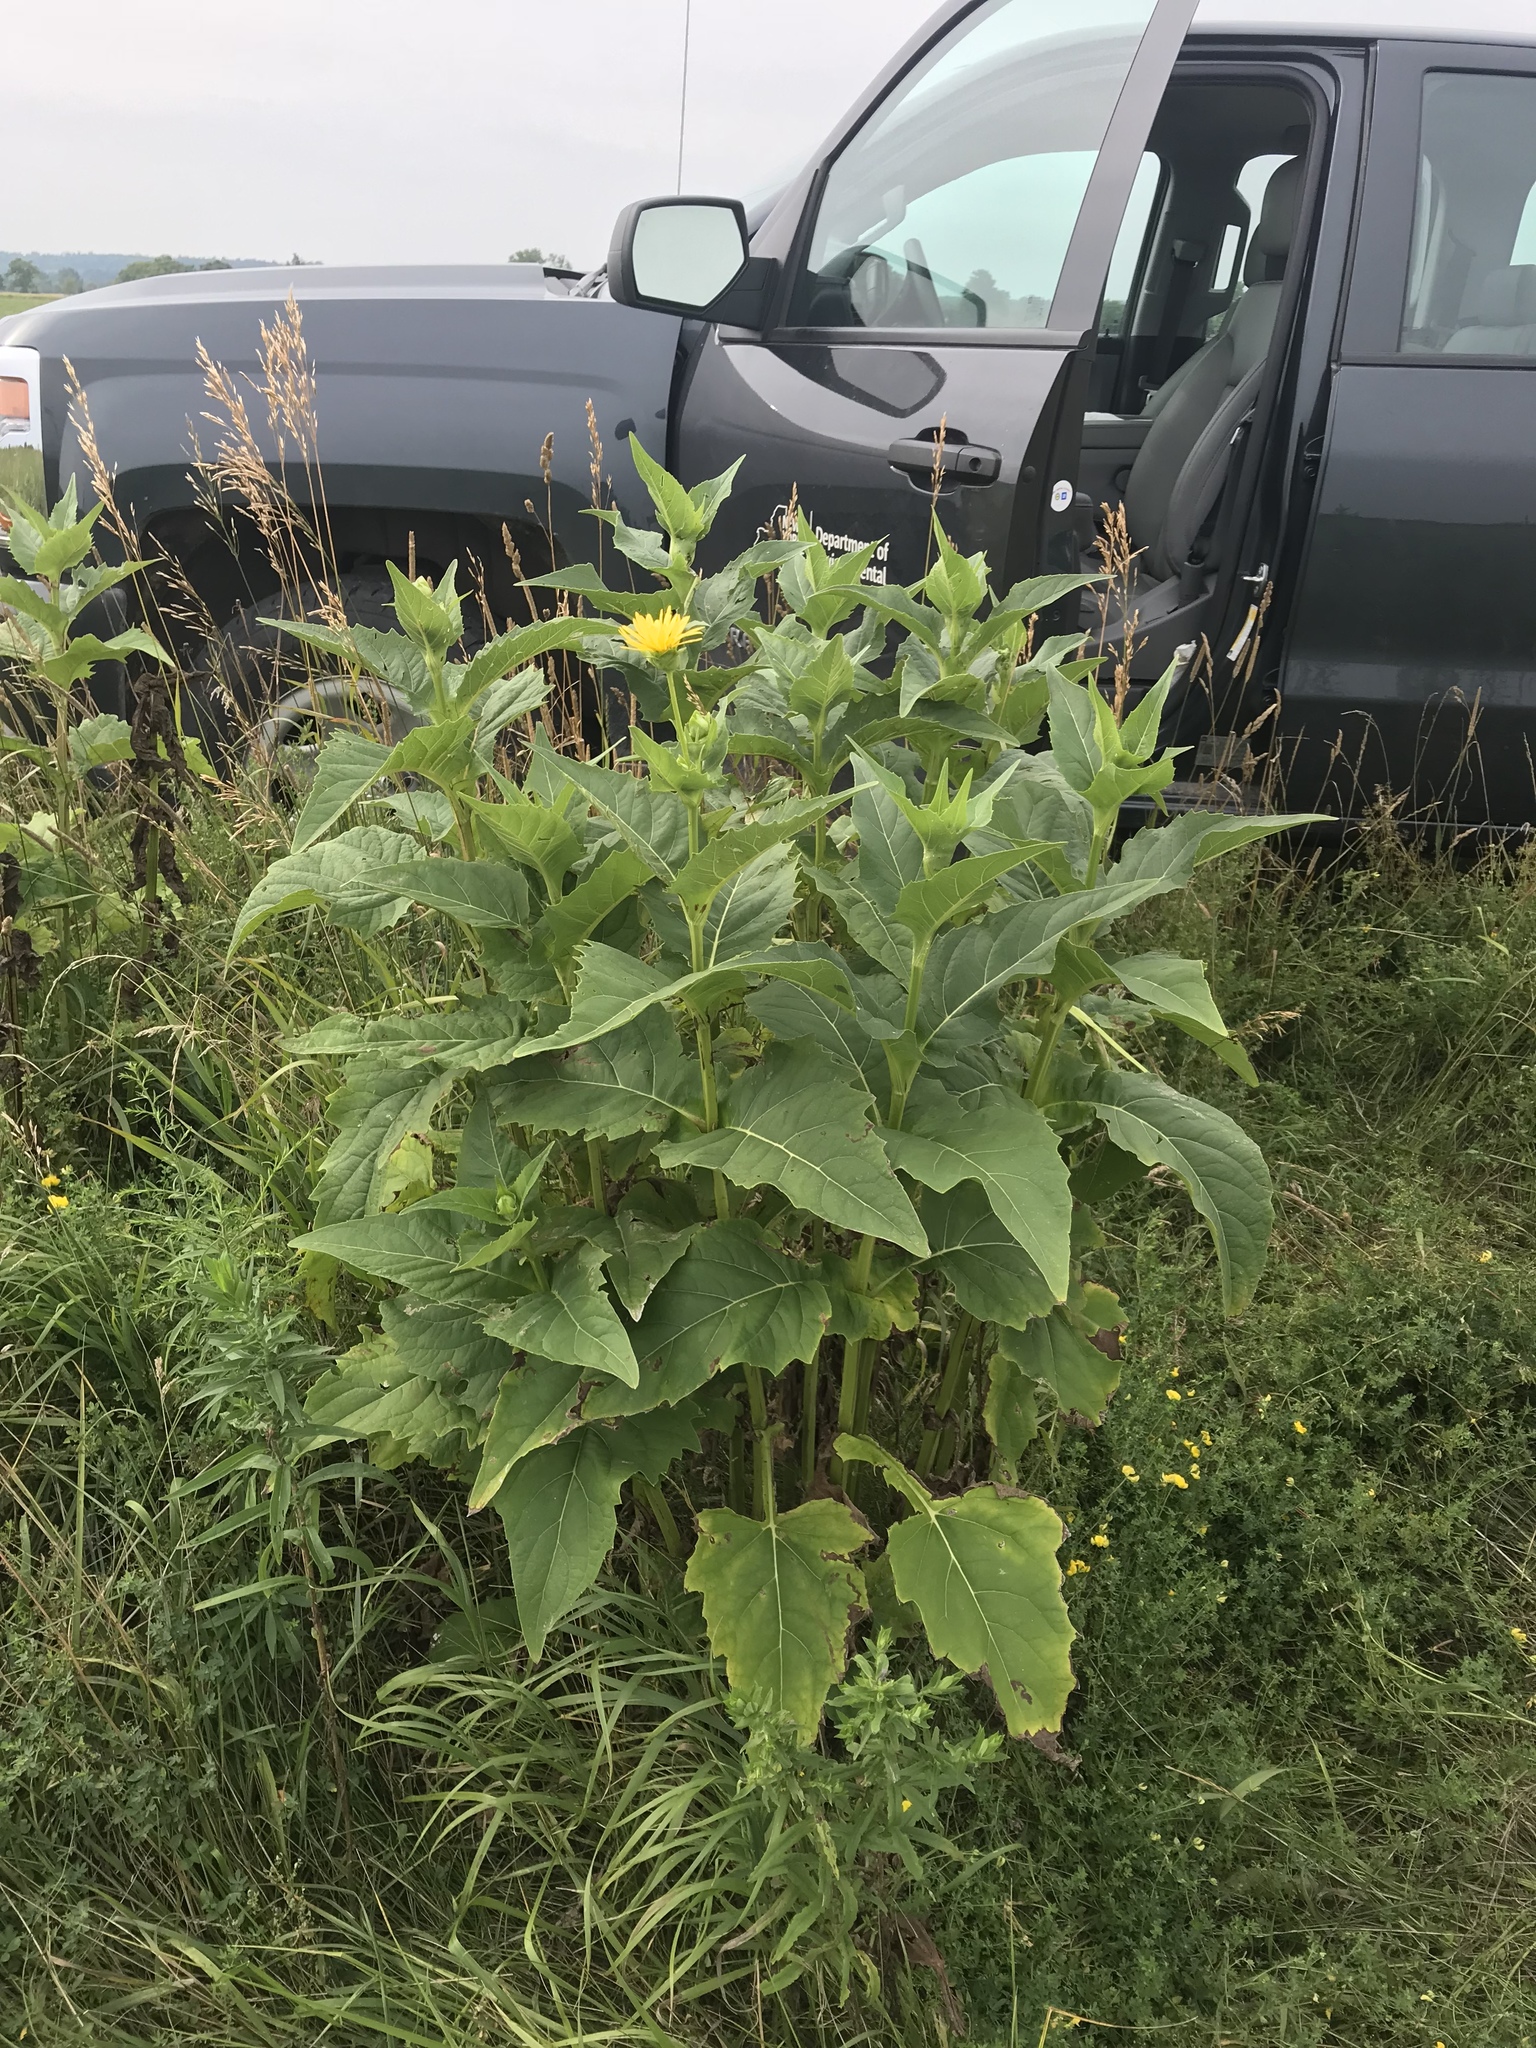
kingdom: Plantae
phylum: Tracheophyta
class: Magnoliopsida
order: Asterales
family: Asteraceae
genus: Silphium
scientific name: Silphium perfoliatum
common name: Cup-plant
